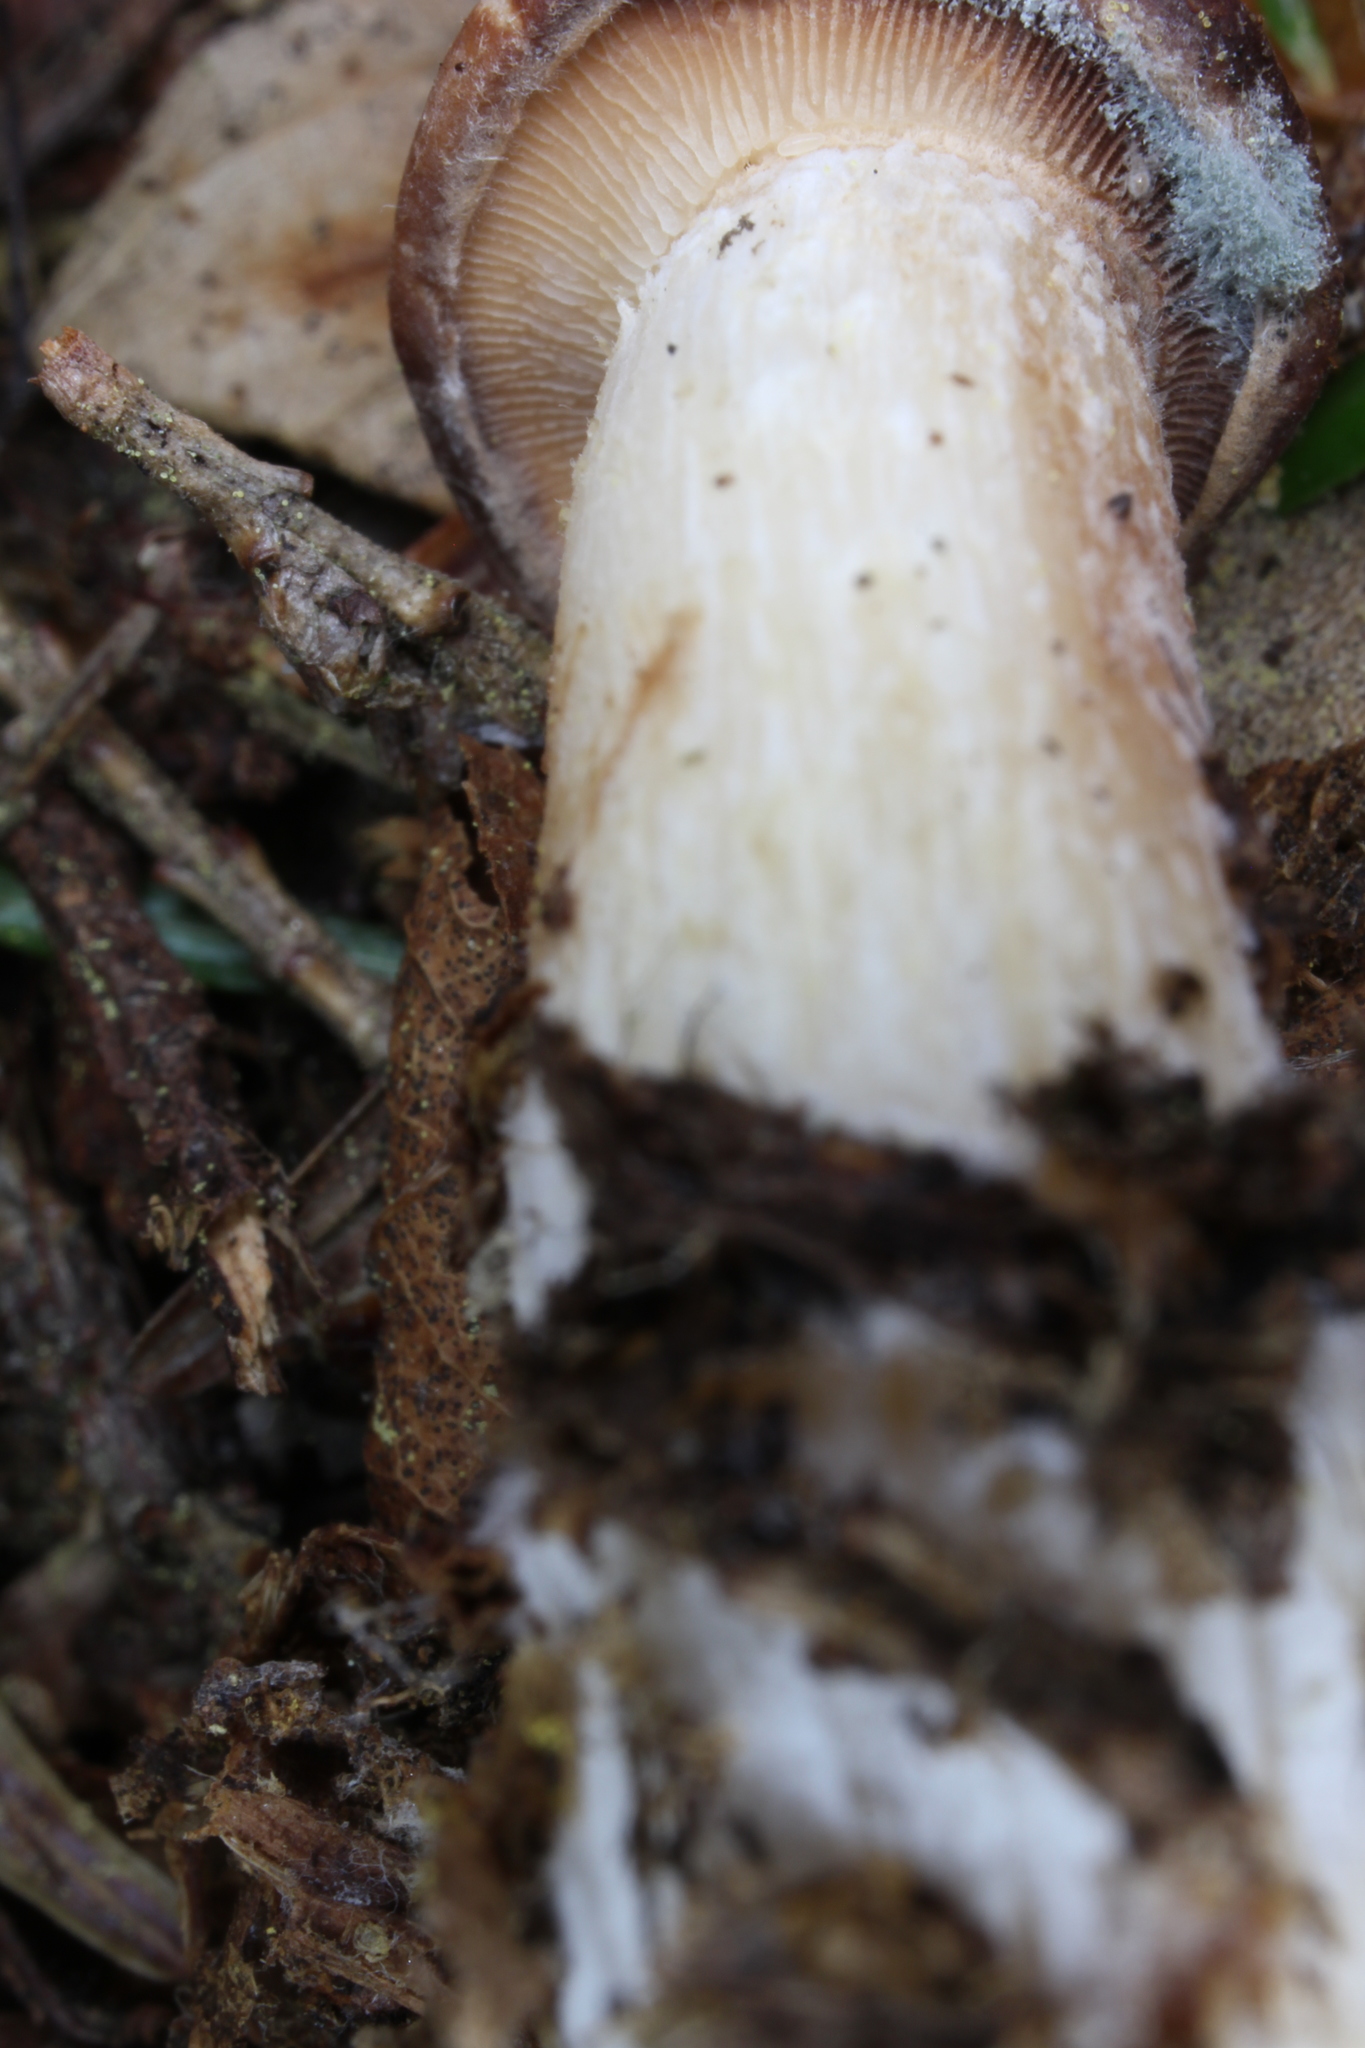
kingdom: Fungi
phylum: Basidiomycota
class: Agaricomycetes
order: Agaricales
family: Omphalotaceae
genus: Rhodocollybia
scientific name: Rhodocollybia maculata
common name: Spotted tough-shank
